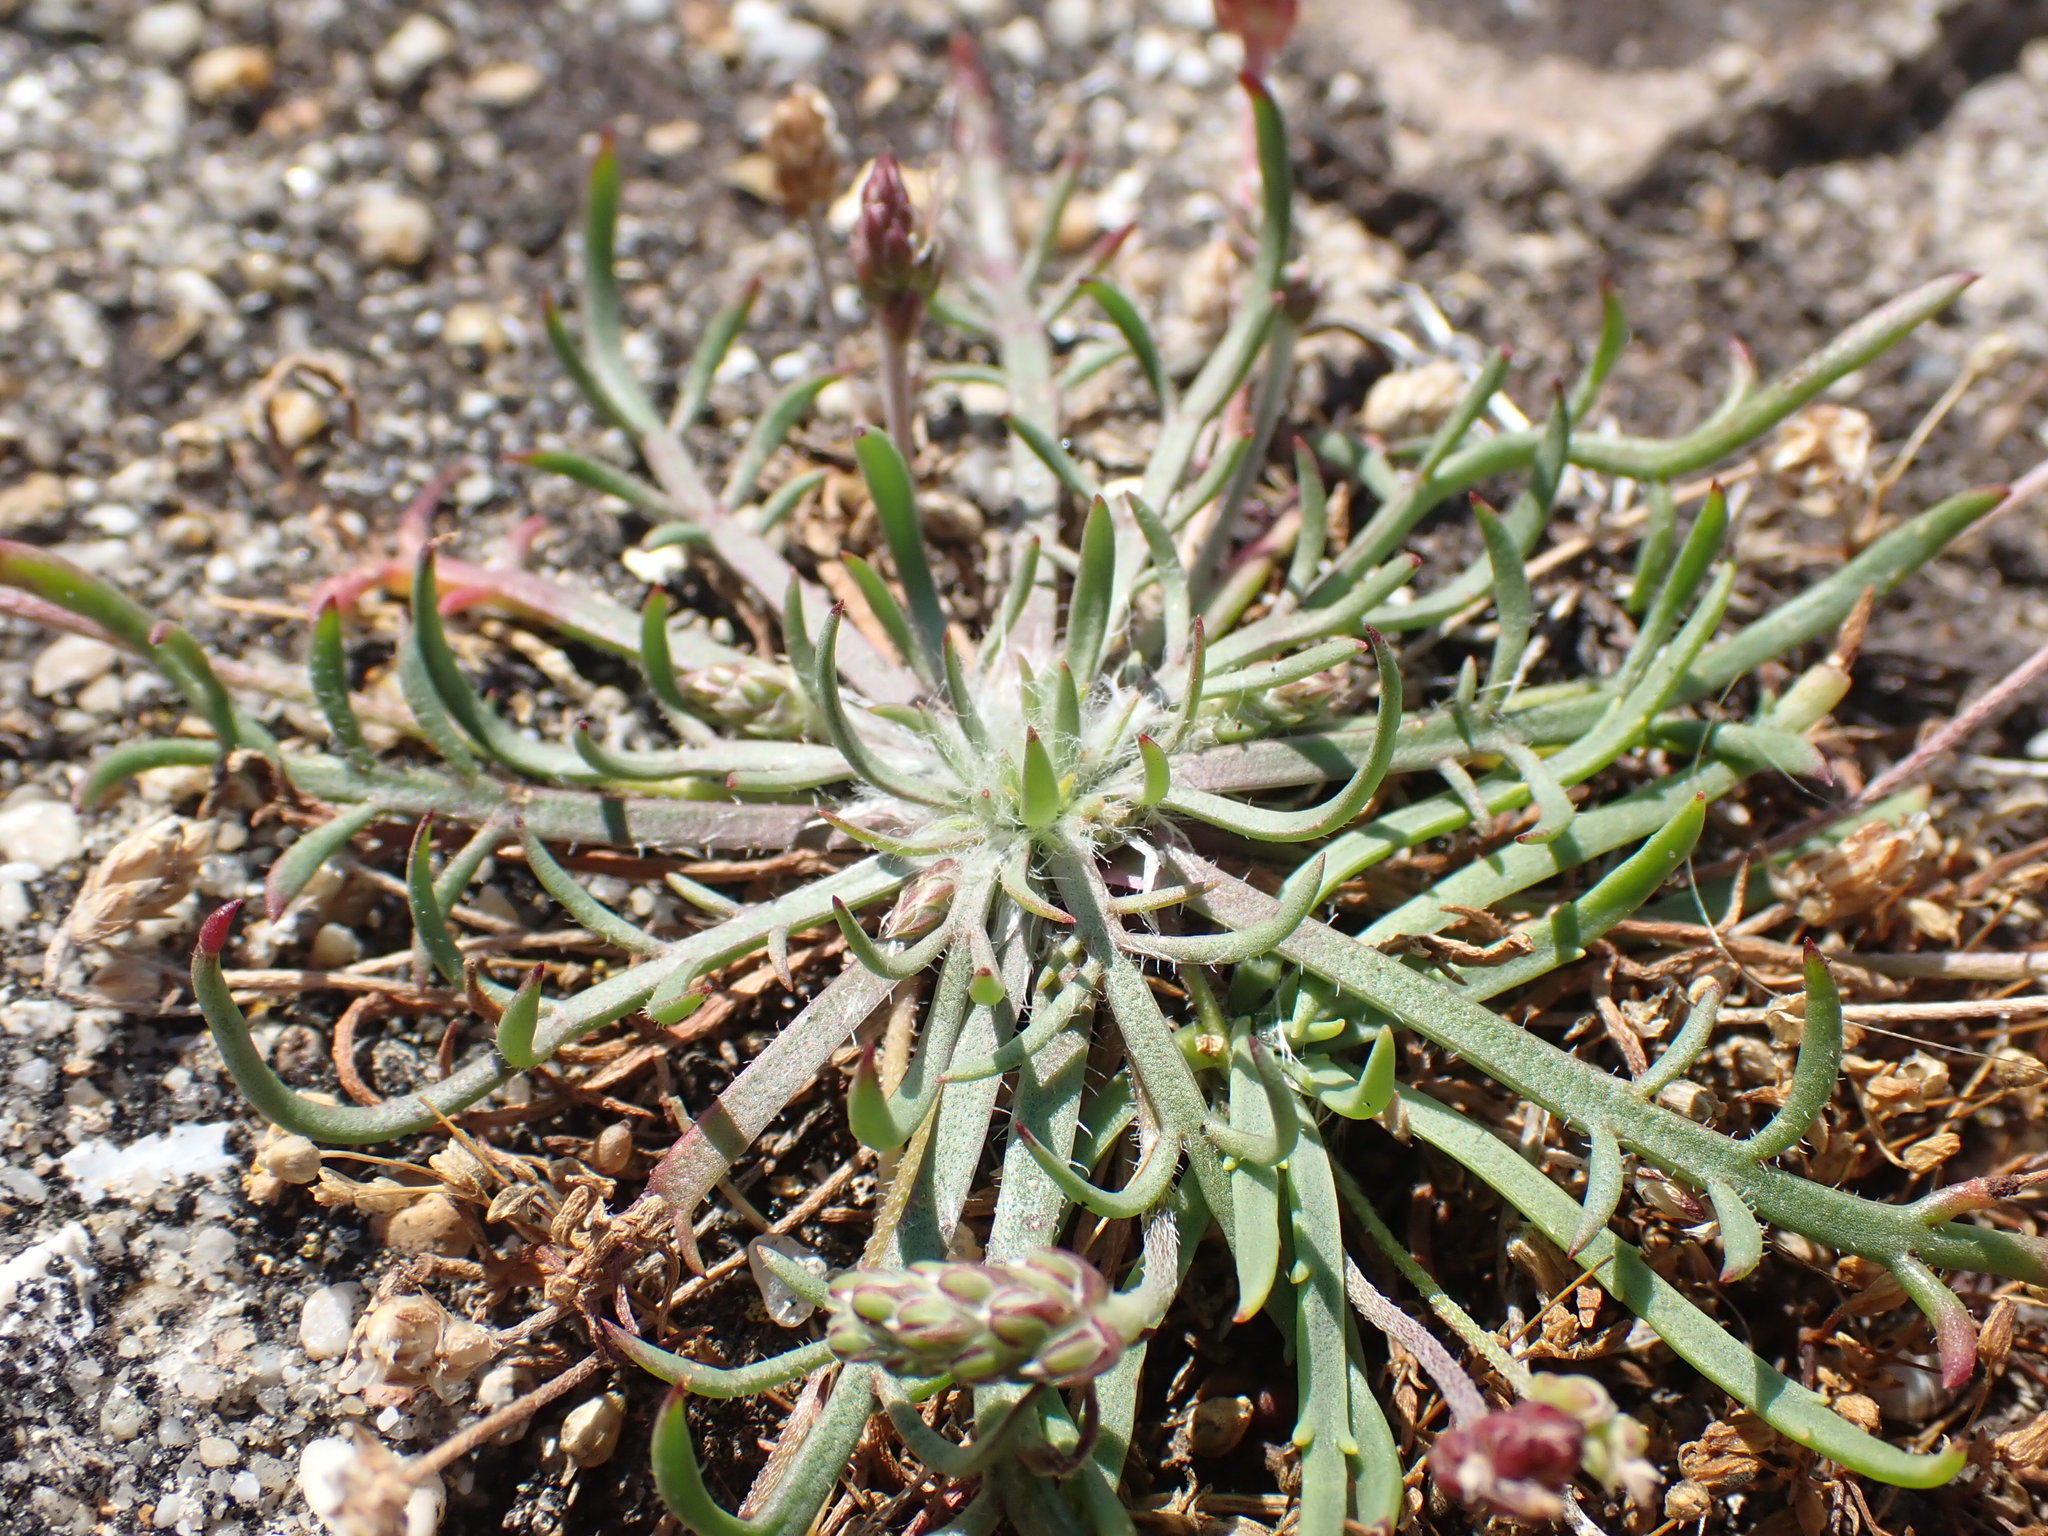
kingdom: Plantae
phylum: Tracheophyta
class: Magnoliopsida
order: Lamiales
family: Plantaginaceae
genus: Plantago
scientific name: Plantago coronopus
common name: Buck's-horn plantain
